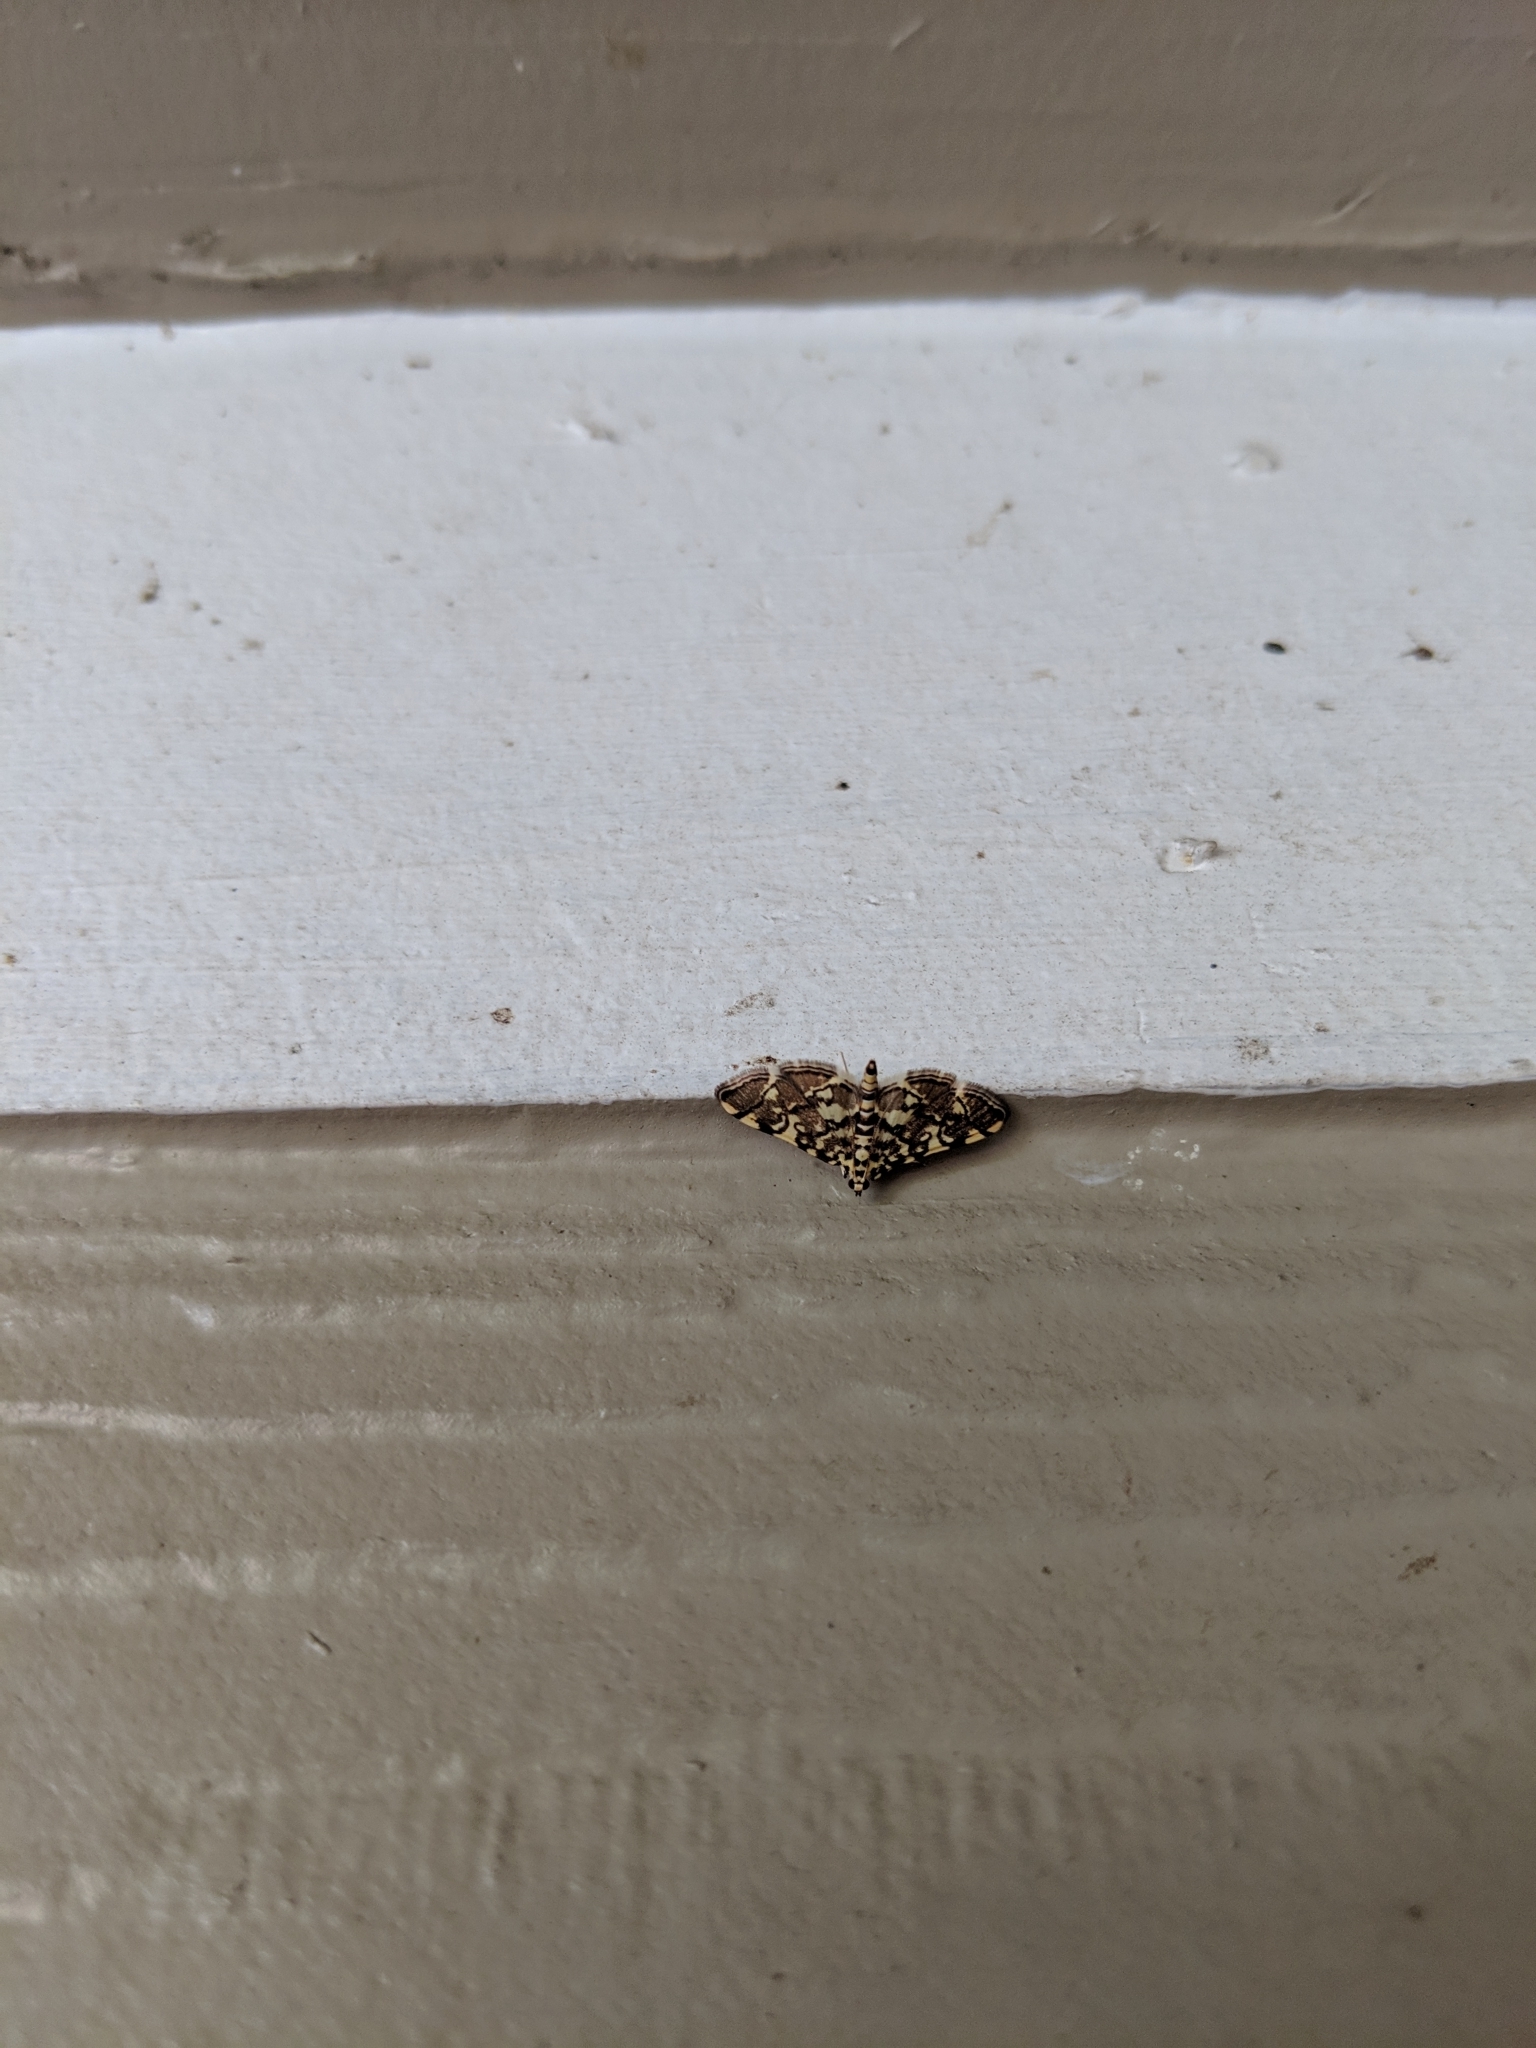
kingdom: Animalia
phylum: Arthropoda
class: Insecta
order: Lepidoptera
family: Crambidae
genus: Apogeshna
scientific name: Apogeshna stenialis
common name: Checkered apogeshna moth
